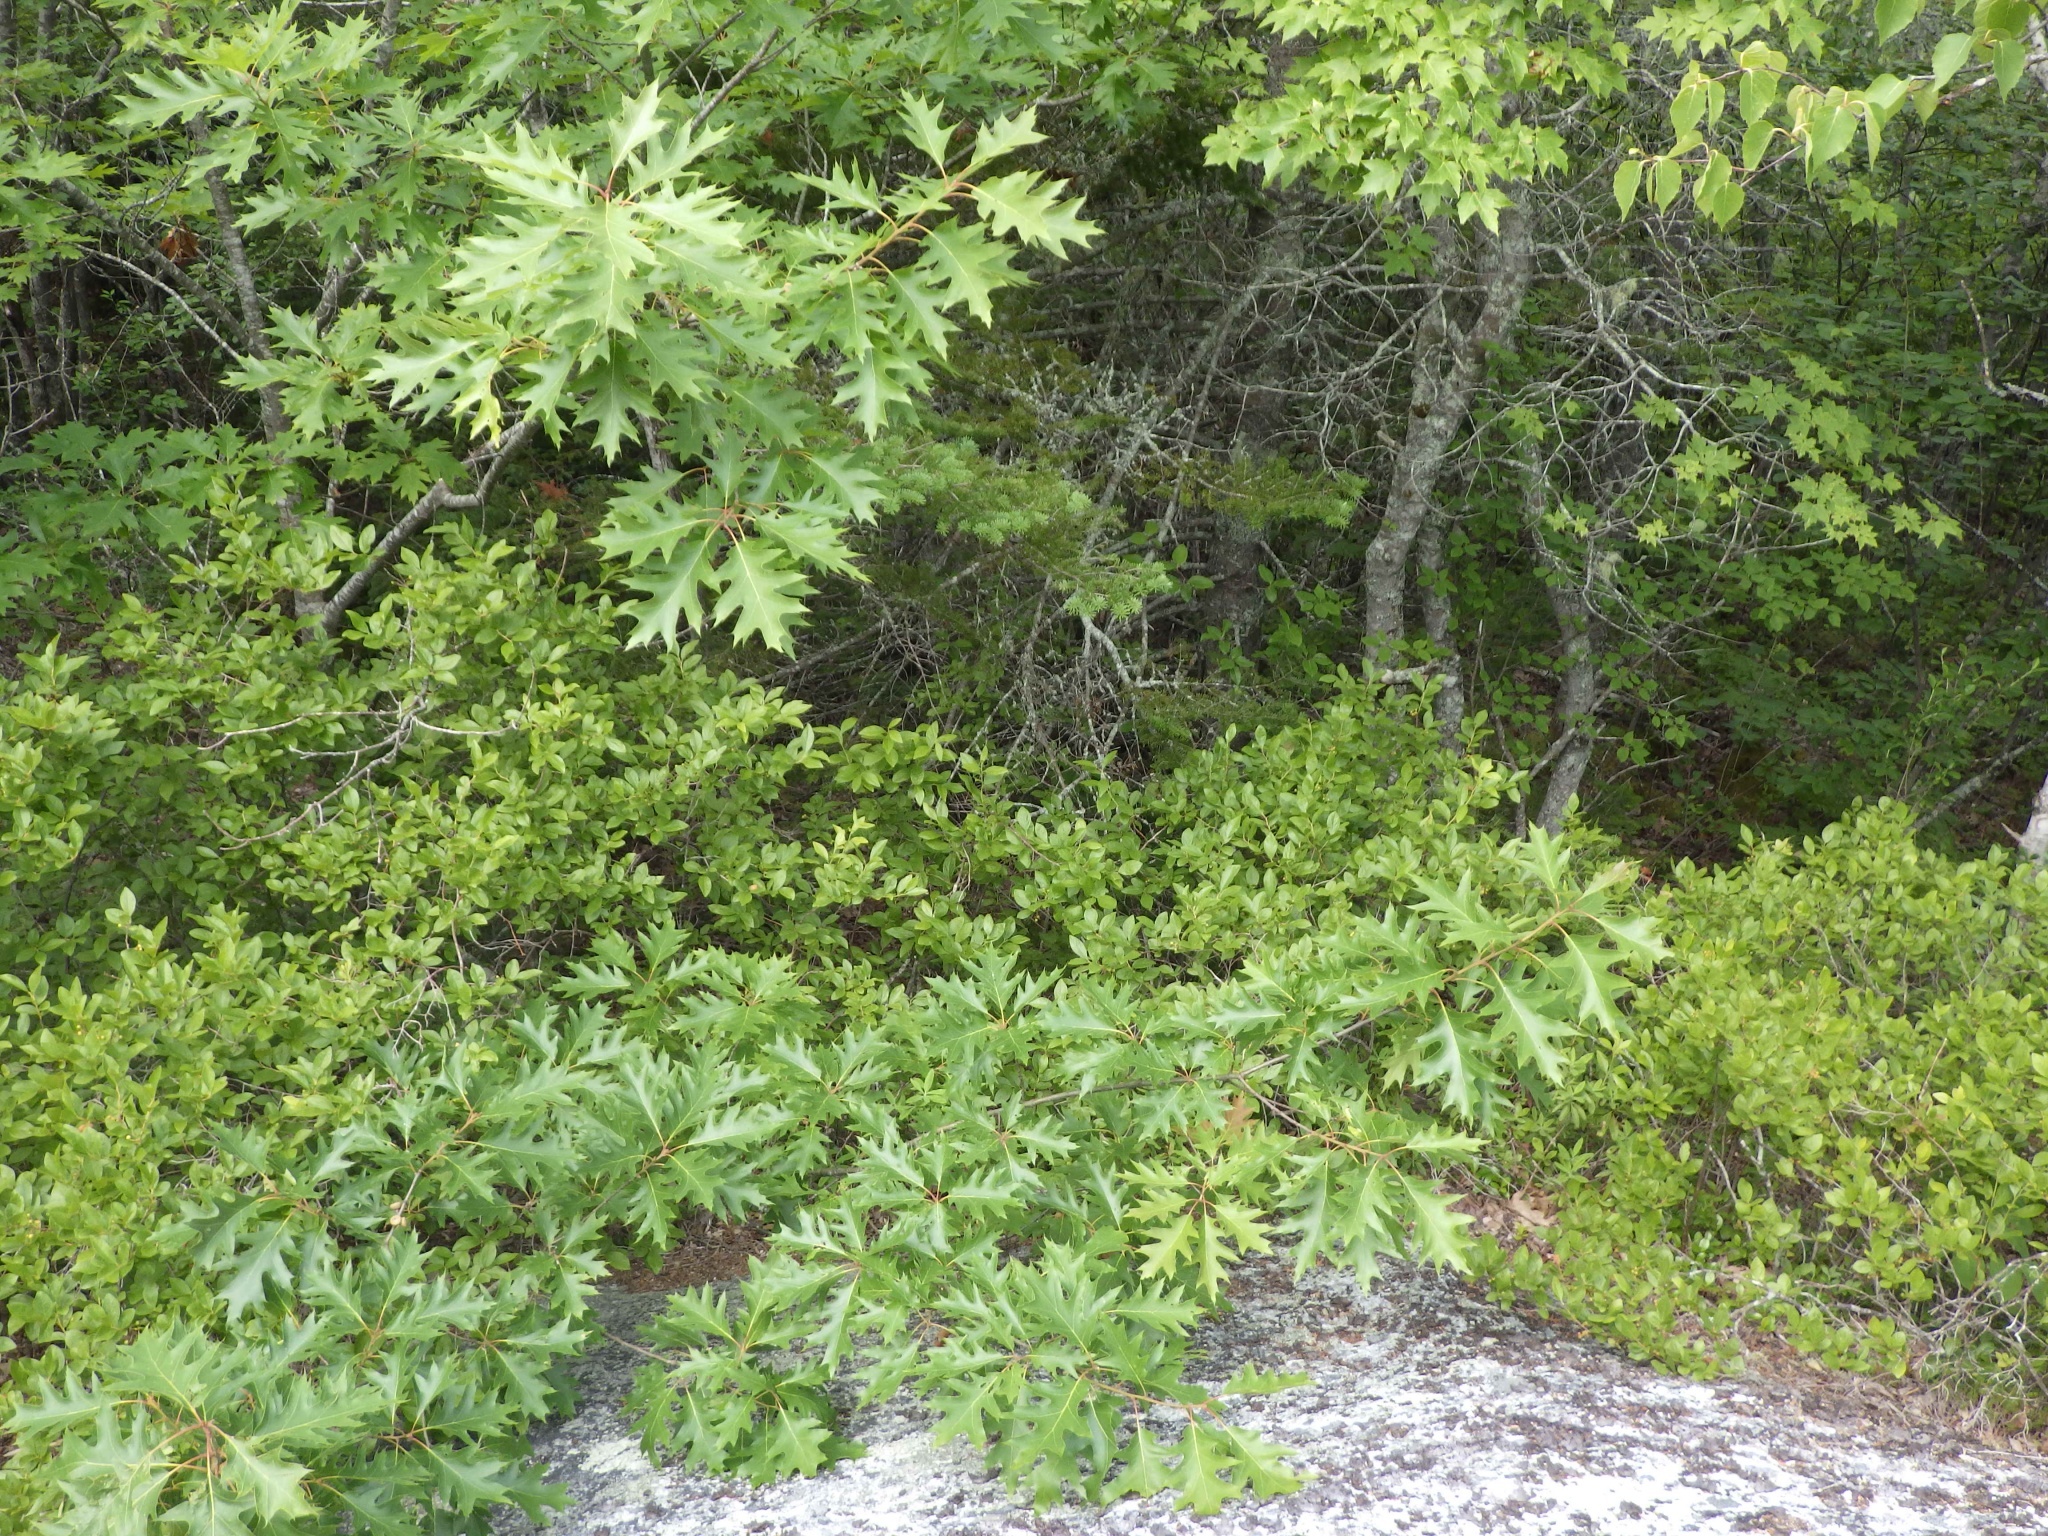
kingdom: Plantae
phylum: Tracheophyta
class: Magnoliopsida
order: Fagales
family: Fagaceae
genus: Quercus
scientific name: Quercus rubra
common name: Red oak
